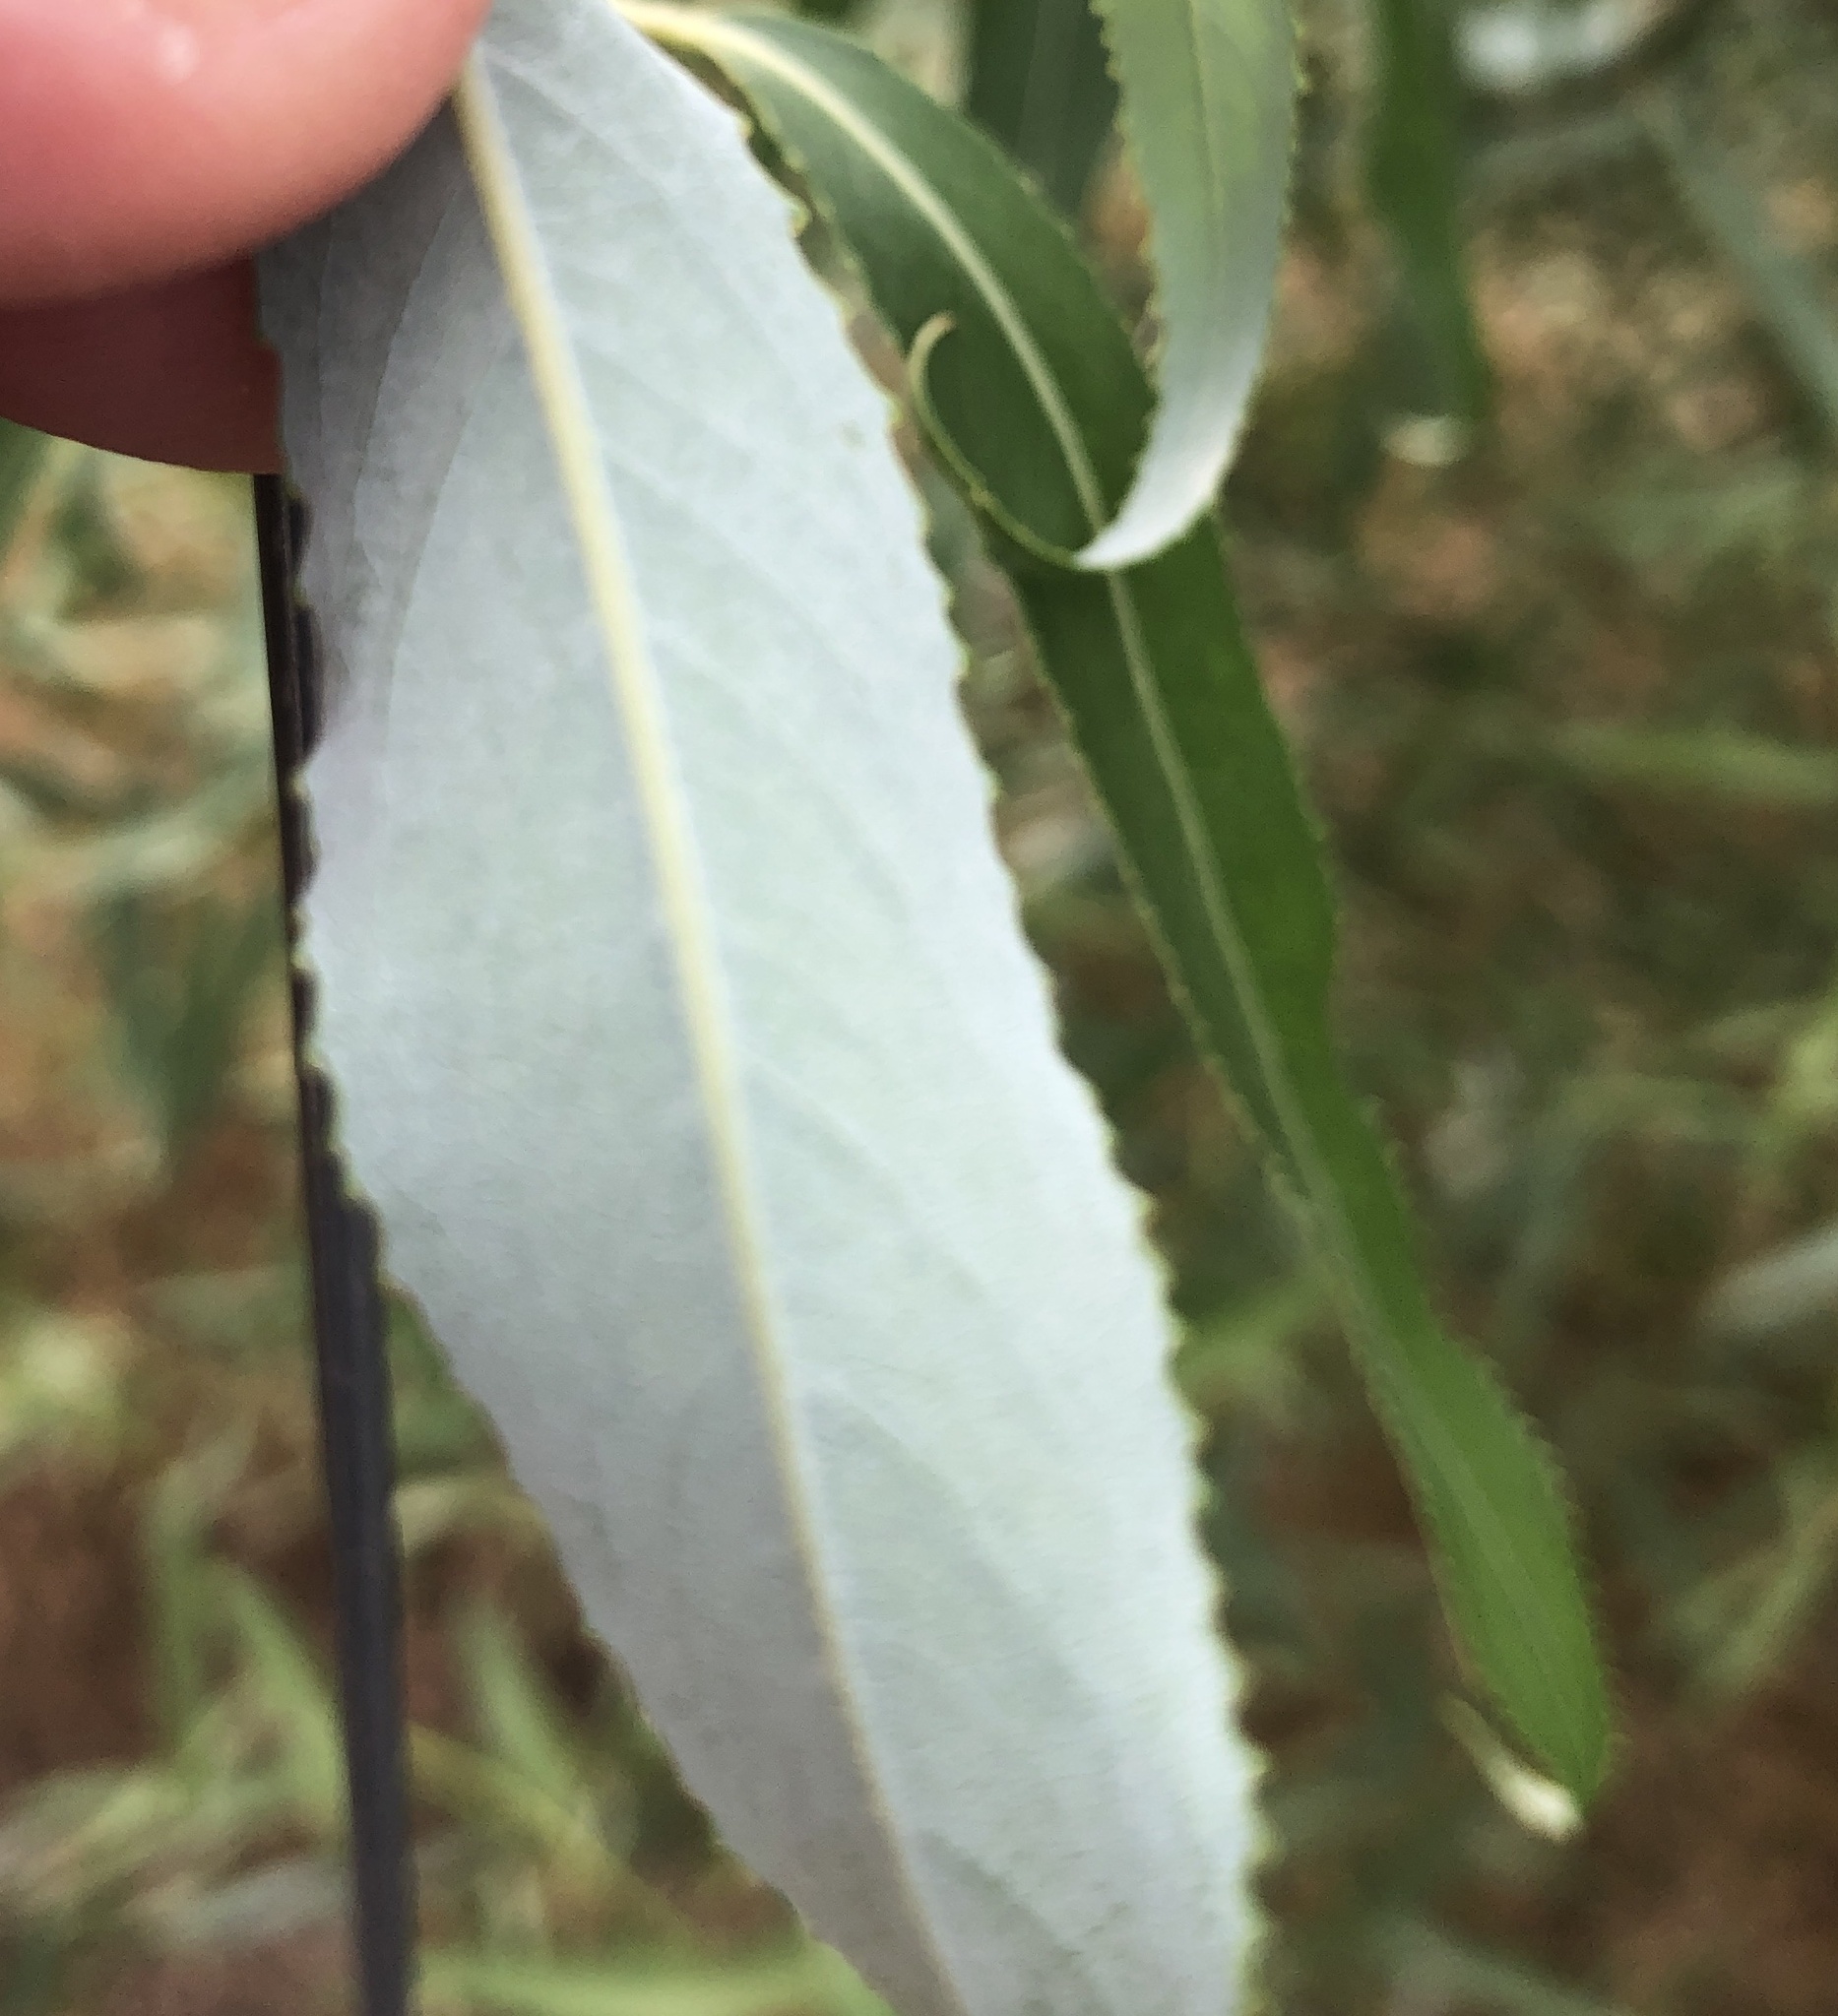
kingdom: Plantae
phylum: Tracheophyta
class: Magnoliopsida
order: Malpighiales
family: Salicaceae
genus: Salix
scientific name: Salix
